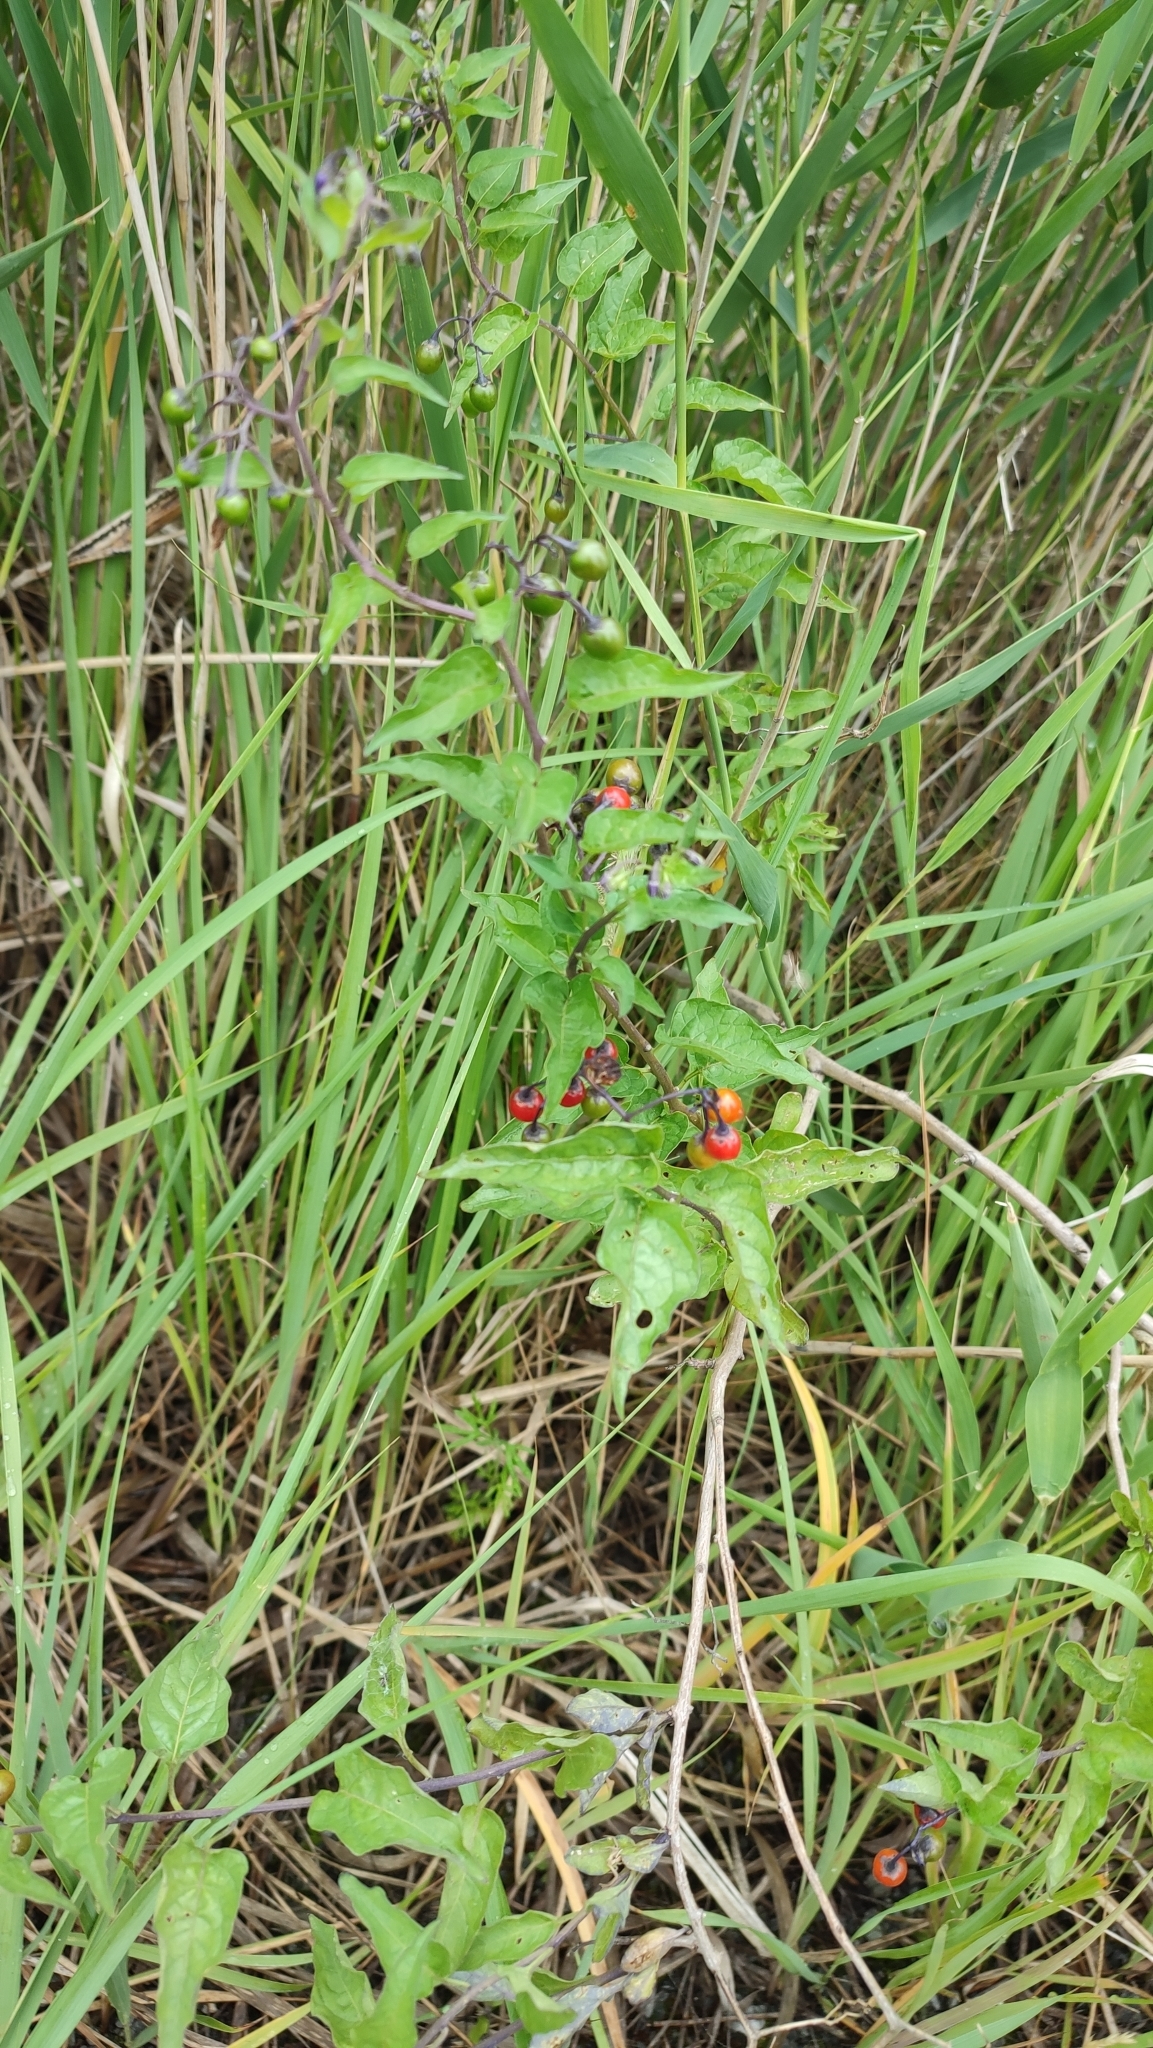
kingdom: Plantae
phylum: Tracheophyta
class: Magnoliopsida
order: Solanales
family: Solanaceae
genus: Solanum
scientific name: Solanum dulcamara
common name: Climbing nightshade
